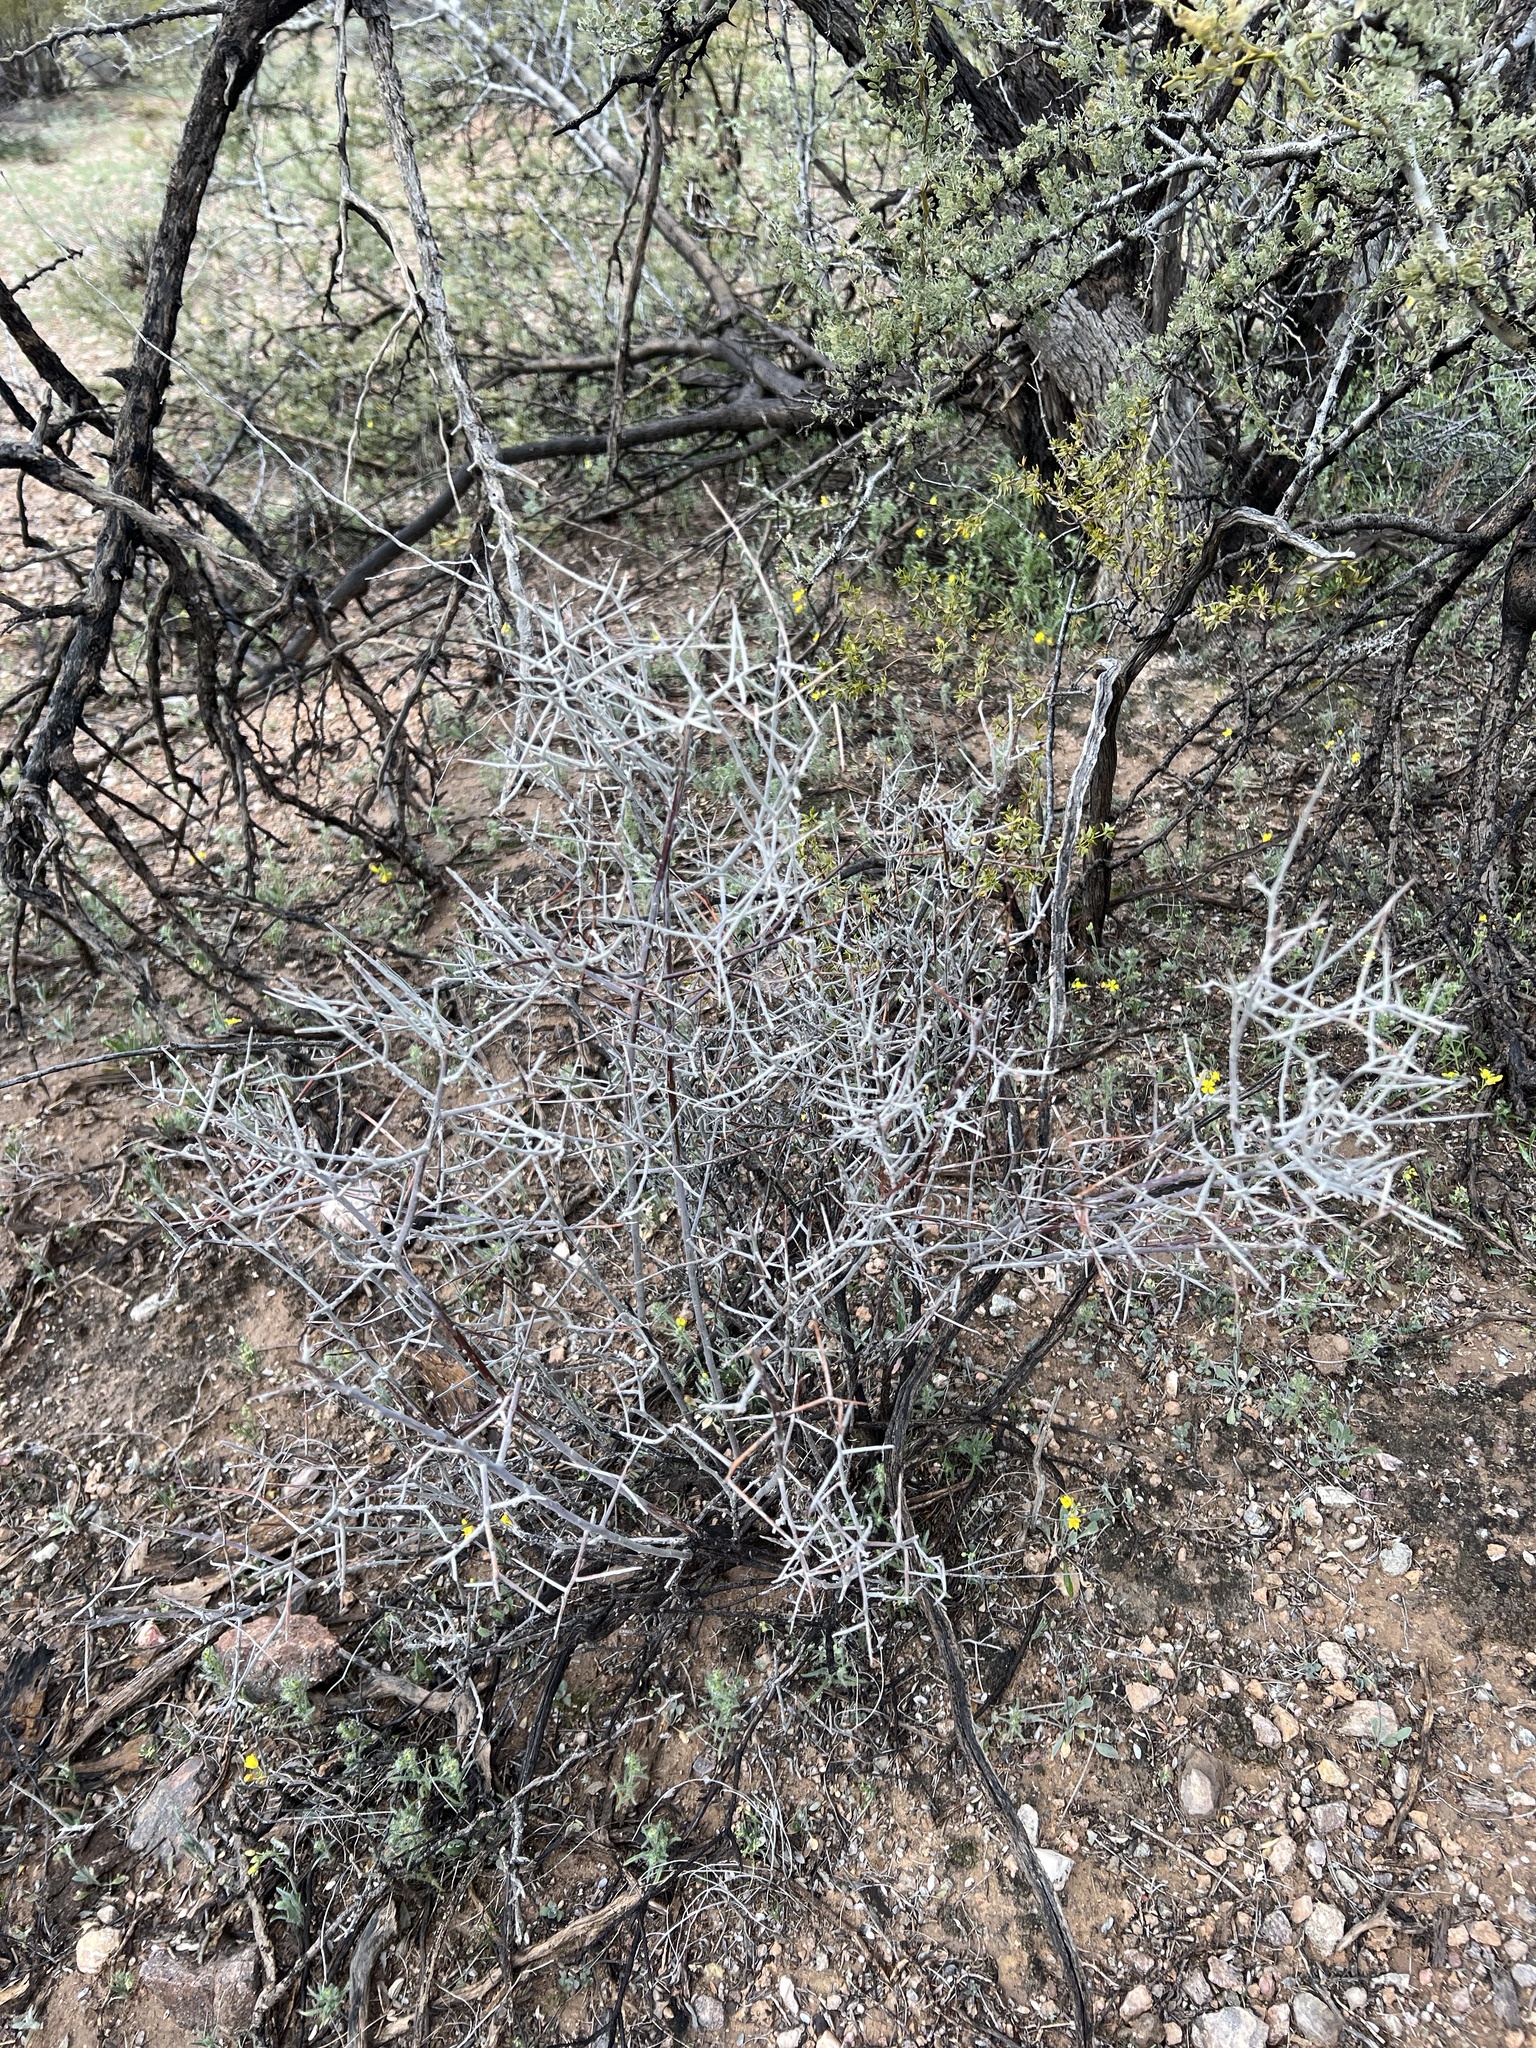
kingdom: Plantae
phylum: Tracheophyta
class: Magnoliopsida
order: Rosales
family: Rhamnaceae
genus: Sarcomphalus
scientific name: Sarcomphalus obtusifolius
